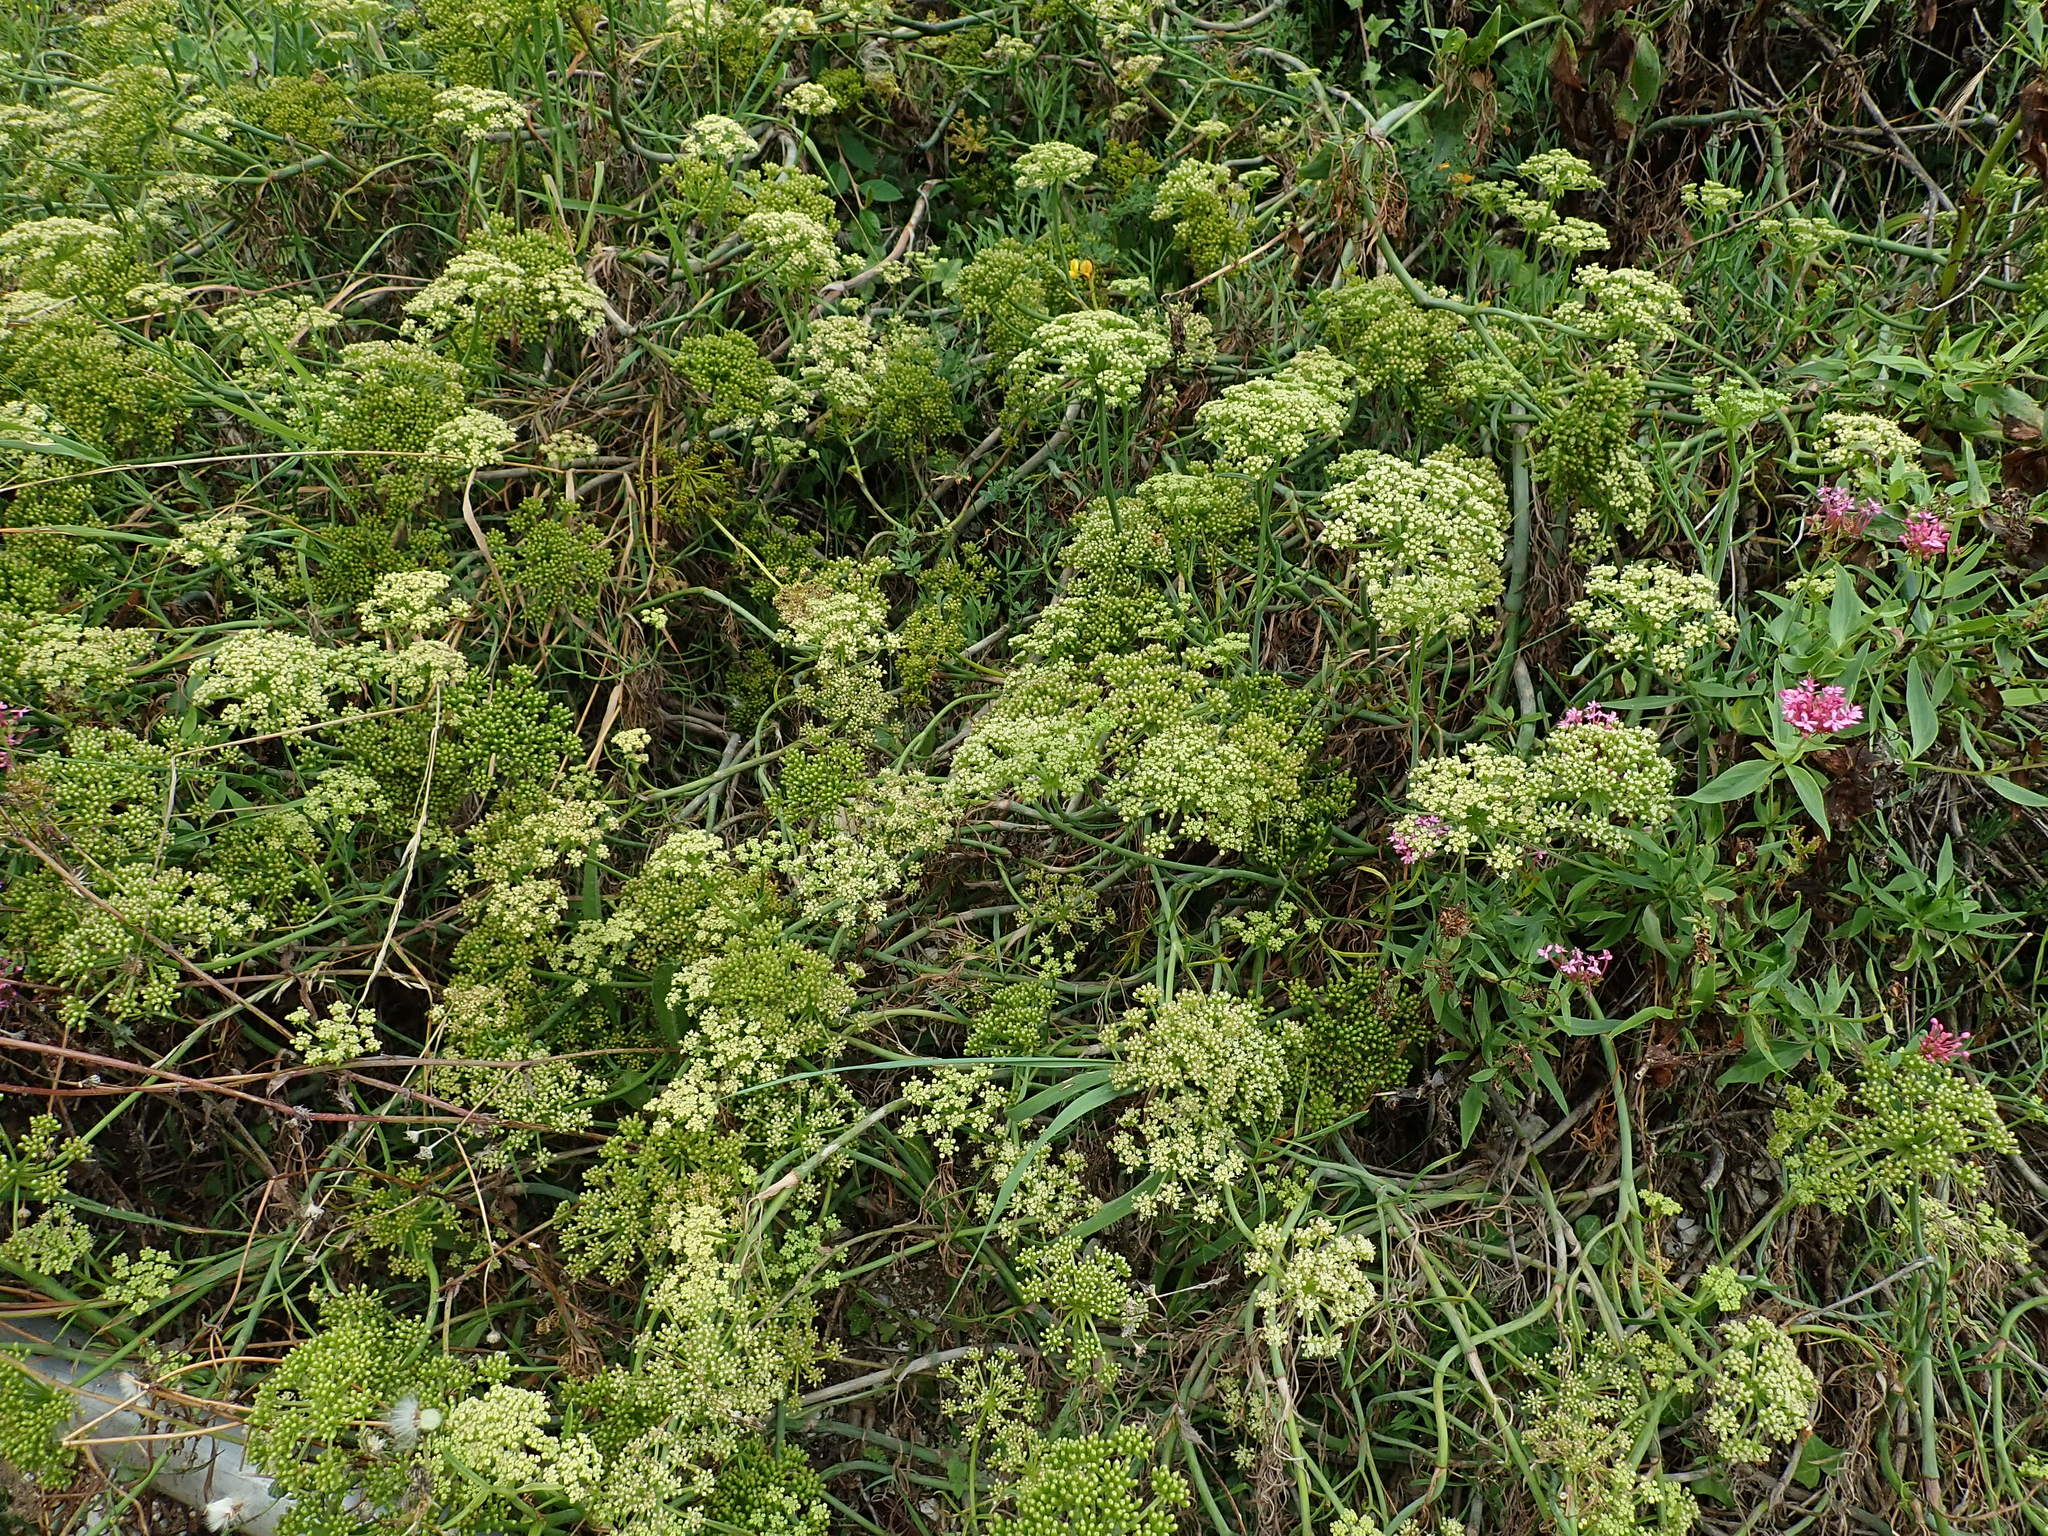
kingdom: Plantae
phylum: Tracheophyta
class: Magnoliopsida
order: Apiales
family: Apiaceae
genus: Crithmum
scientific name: Crithmum maritimum
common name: Rock samphire
